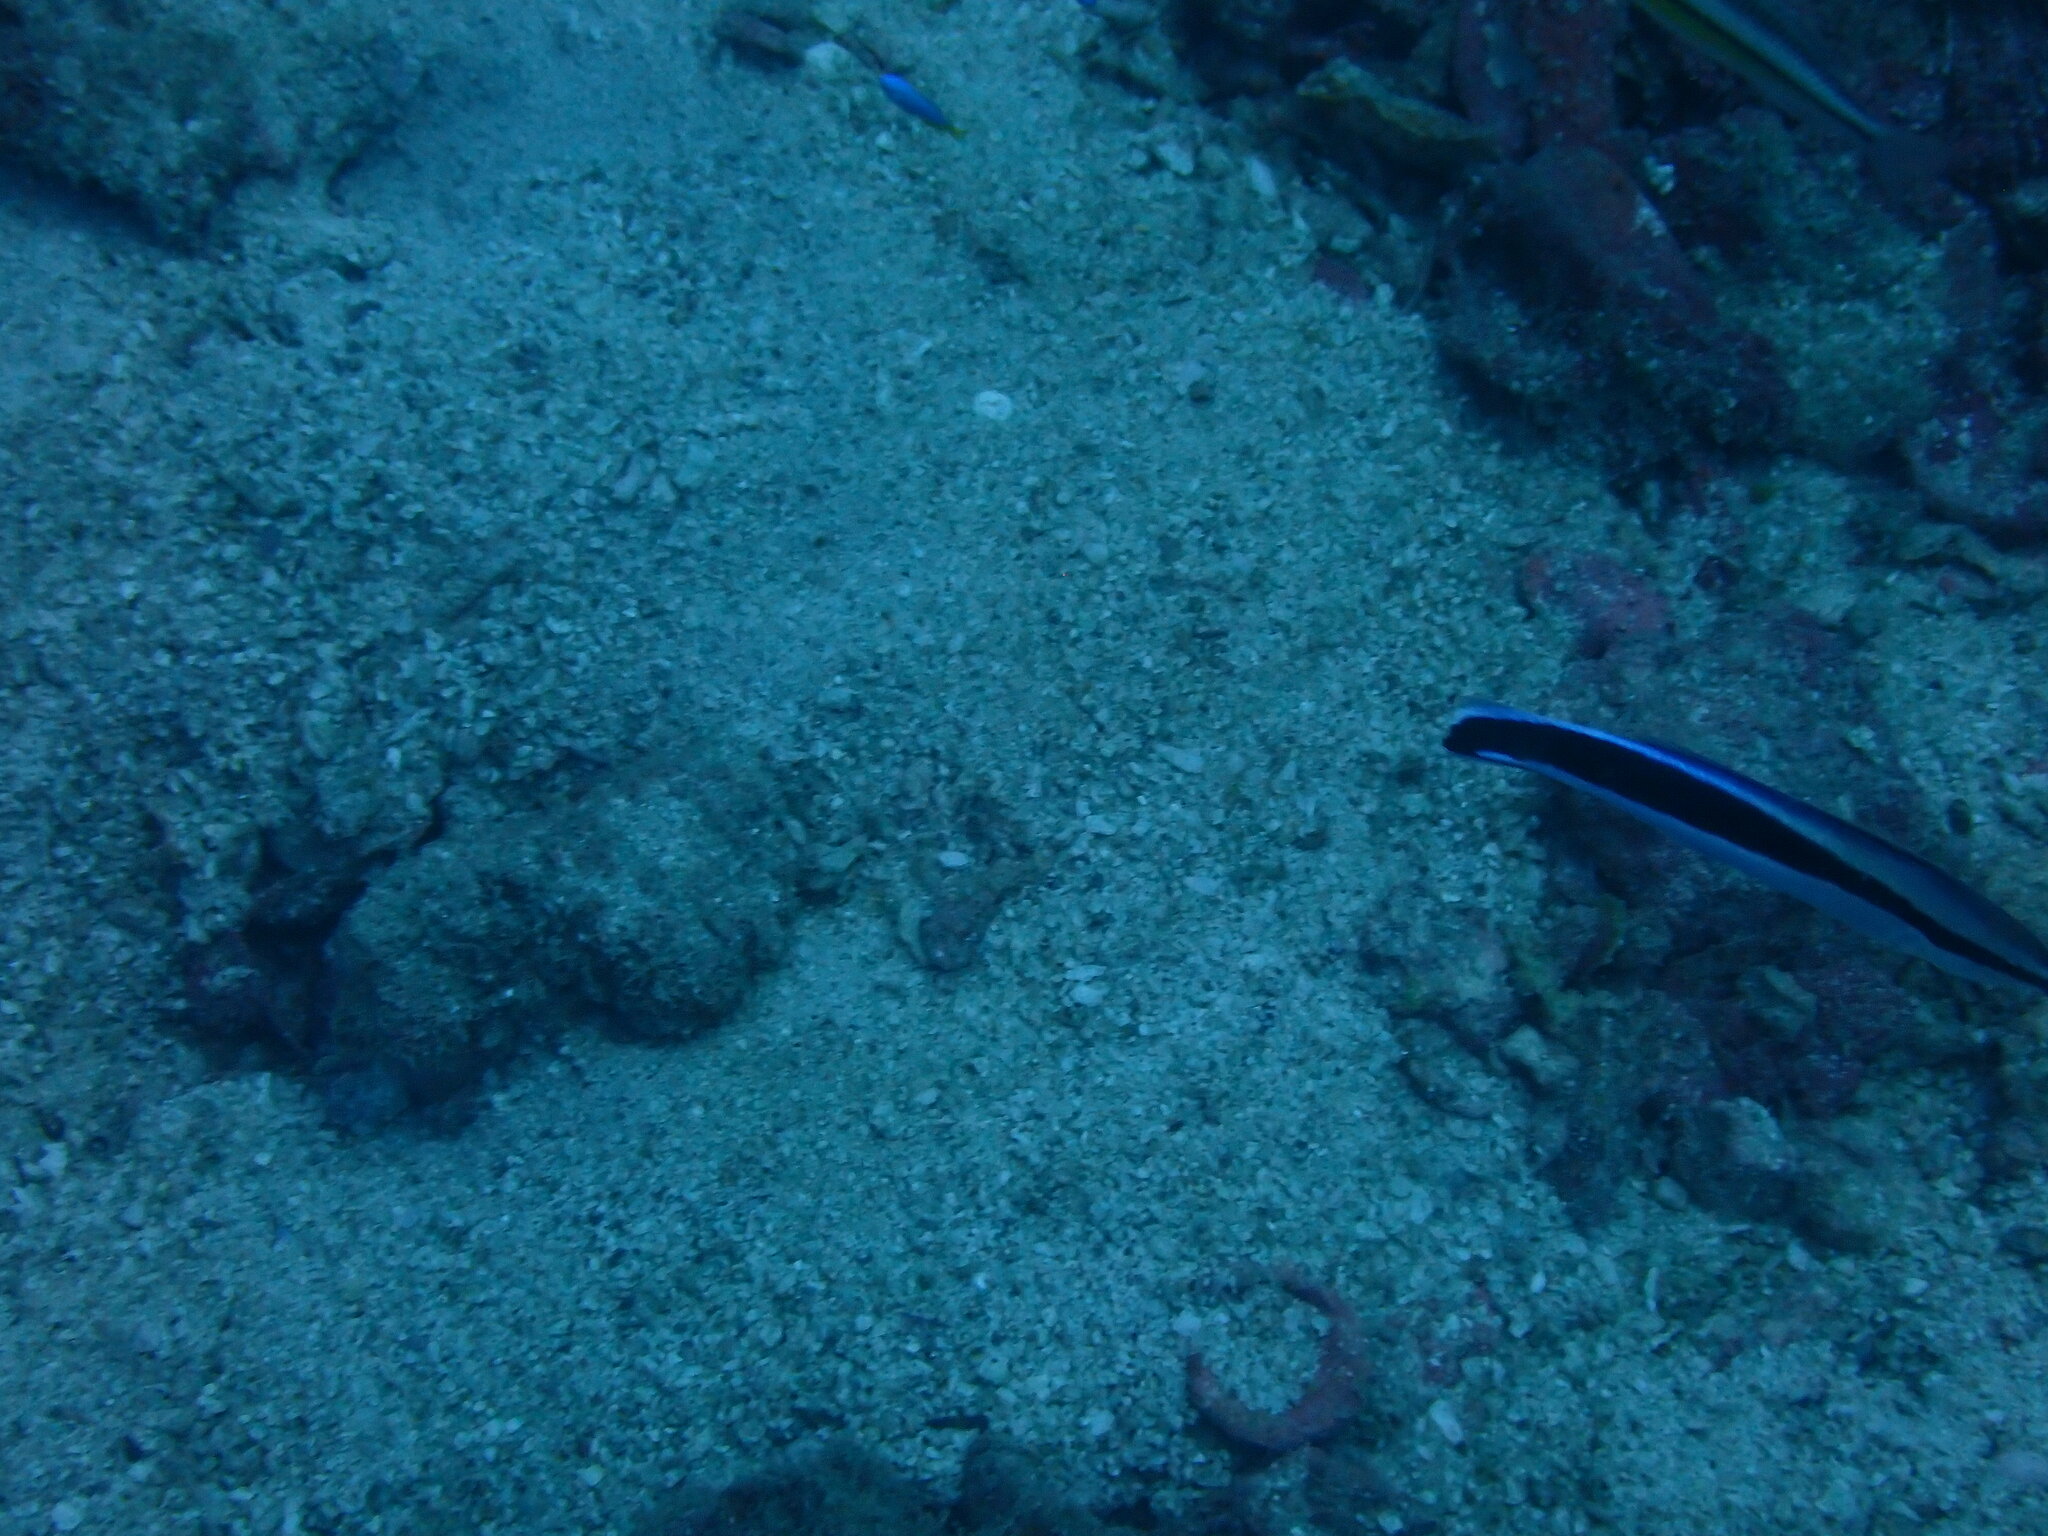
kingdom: Animalia
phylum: Chordata
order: Perciformes
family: Labridae
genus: Labroides
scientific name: Labroides dimidiatus
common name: Blue diesel wrasse
